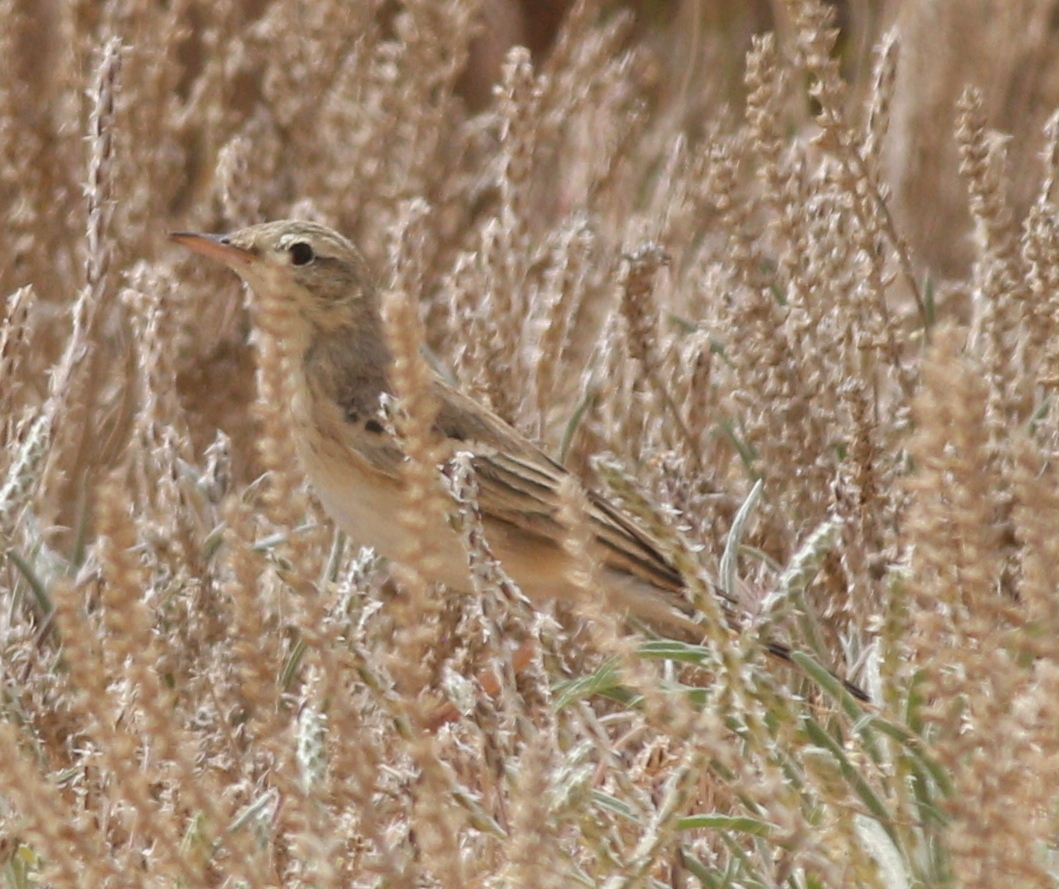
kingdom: Animalia
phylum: Chordata
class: Aves
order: Passeriformes
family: Motacillidae
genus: Anthus
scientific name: Anthus campestris
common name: Tawny pipit
